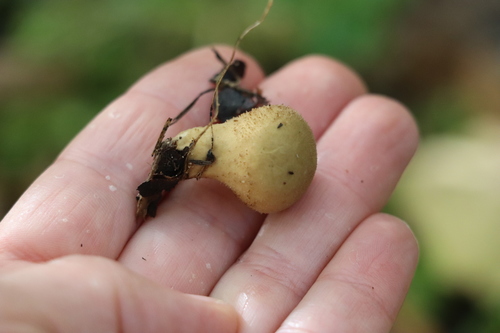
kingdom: Fungi
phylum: Basidiomycota
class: Agaricomycetes
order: Agaricales
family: Lycoperdaceae
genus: Lycoperdon
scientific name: Lycoperdon
